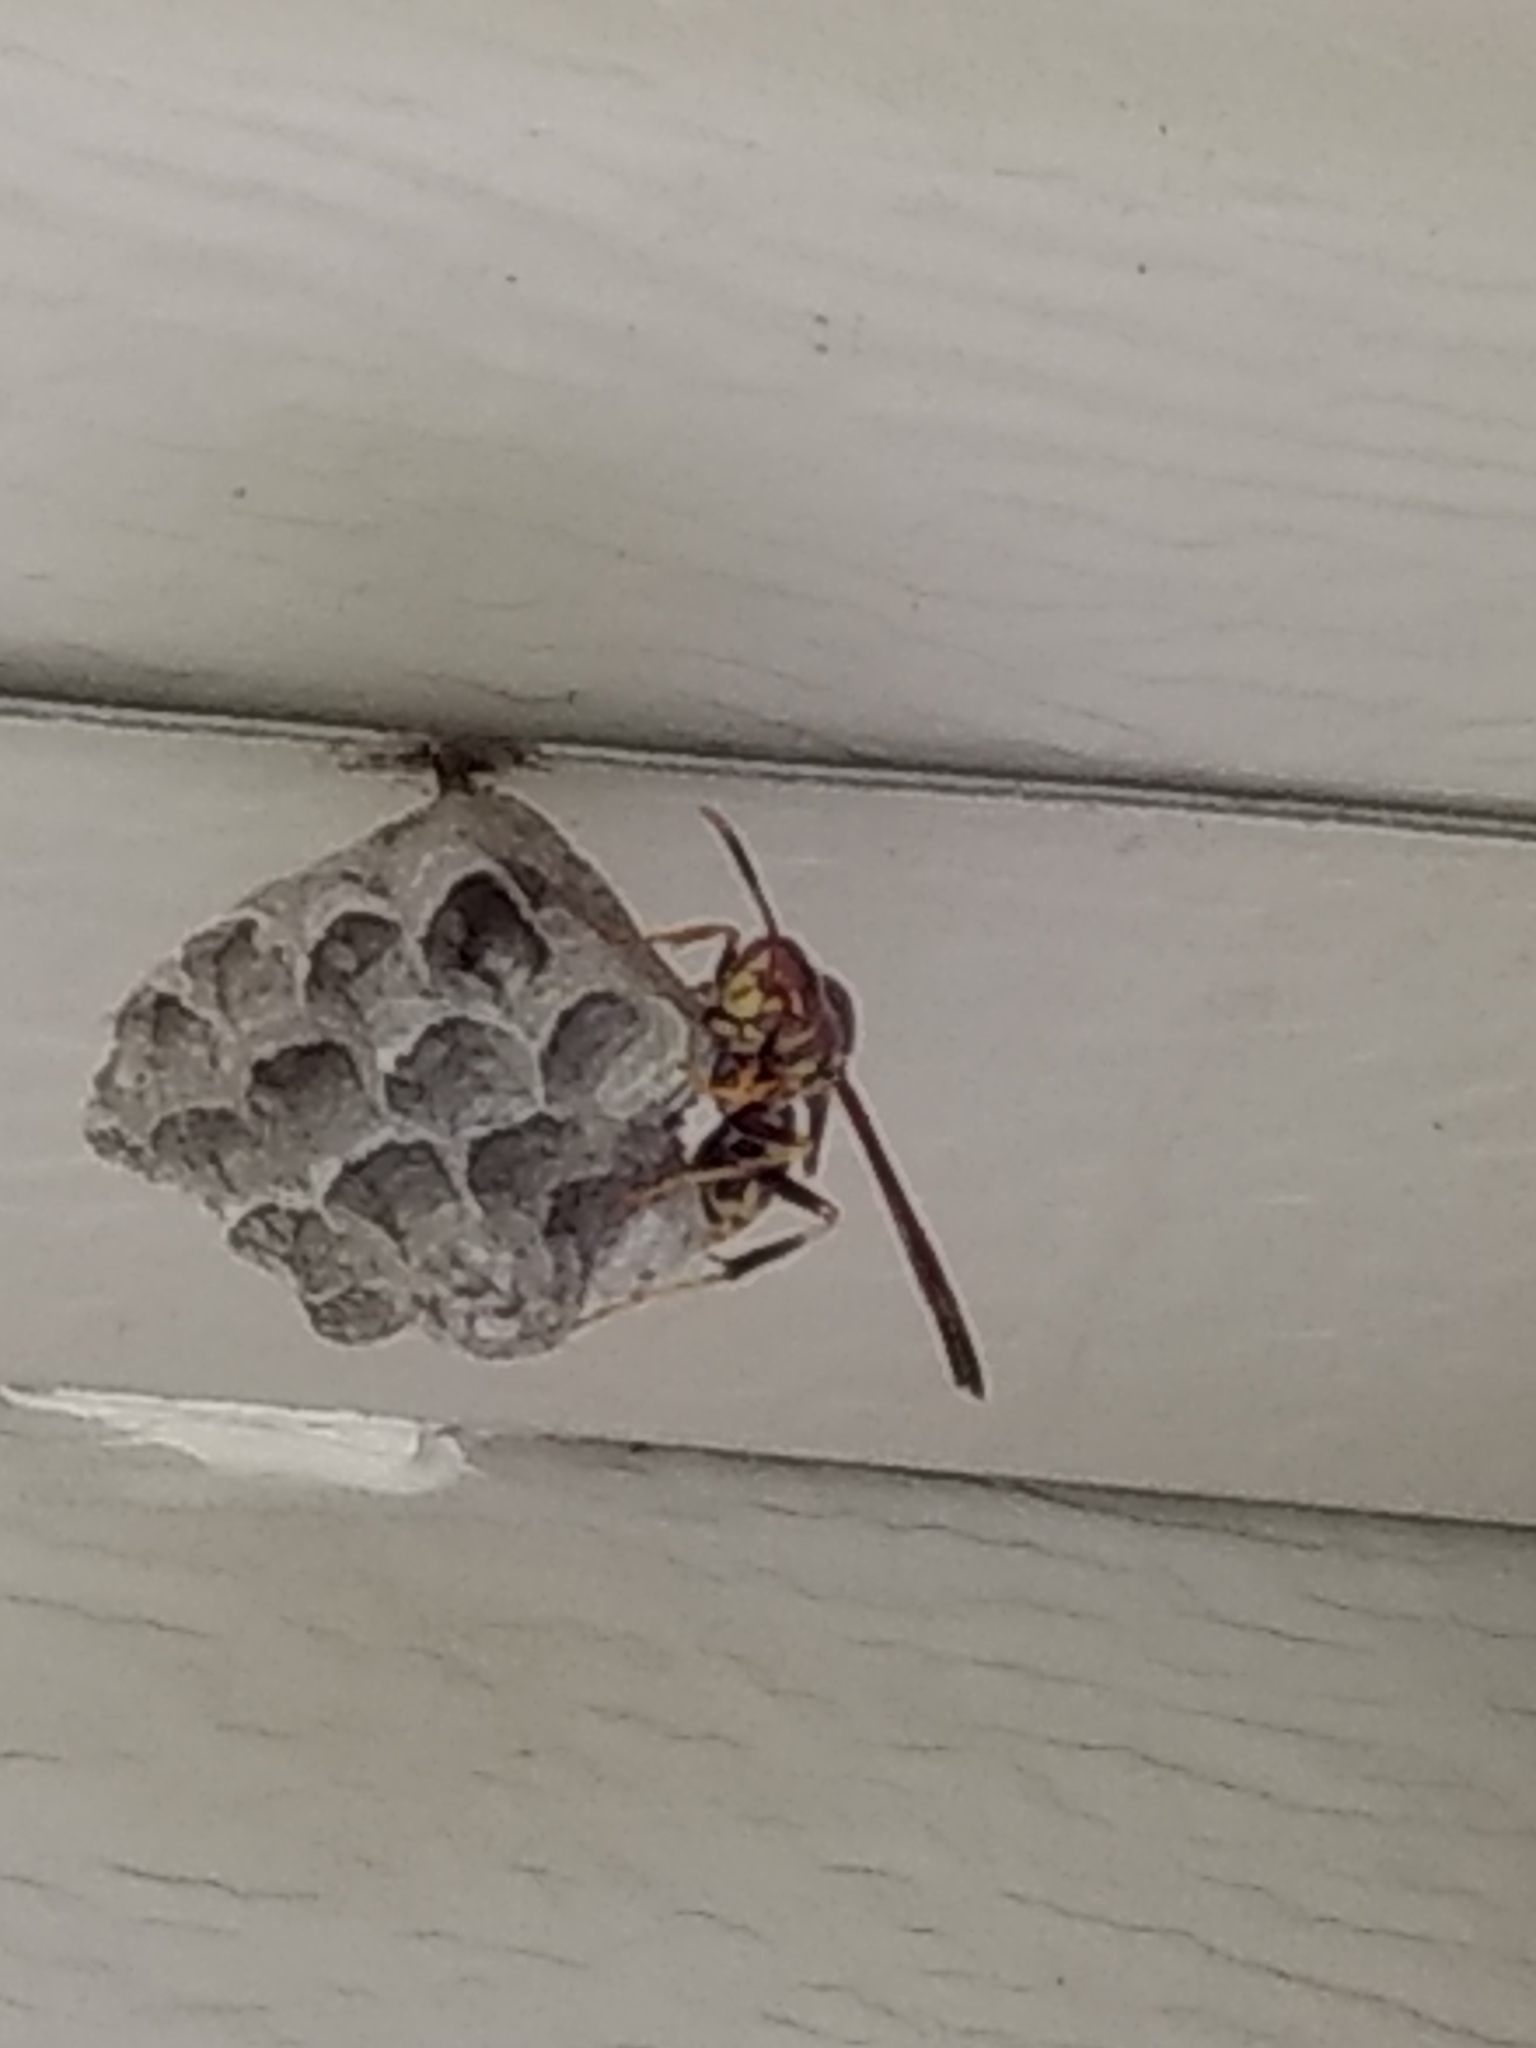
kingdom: Animalia
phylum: Arthropoda
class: Insecta
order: Hymenoptera
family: Eumenidae
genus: Polistes
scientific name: Polistes exclamans
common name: Paper wasp
